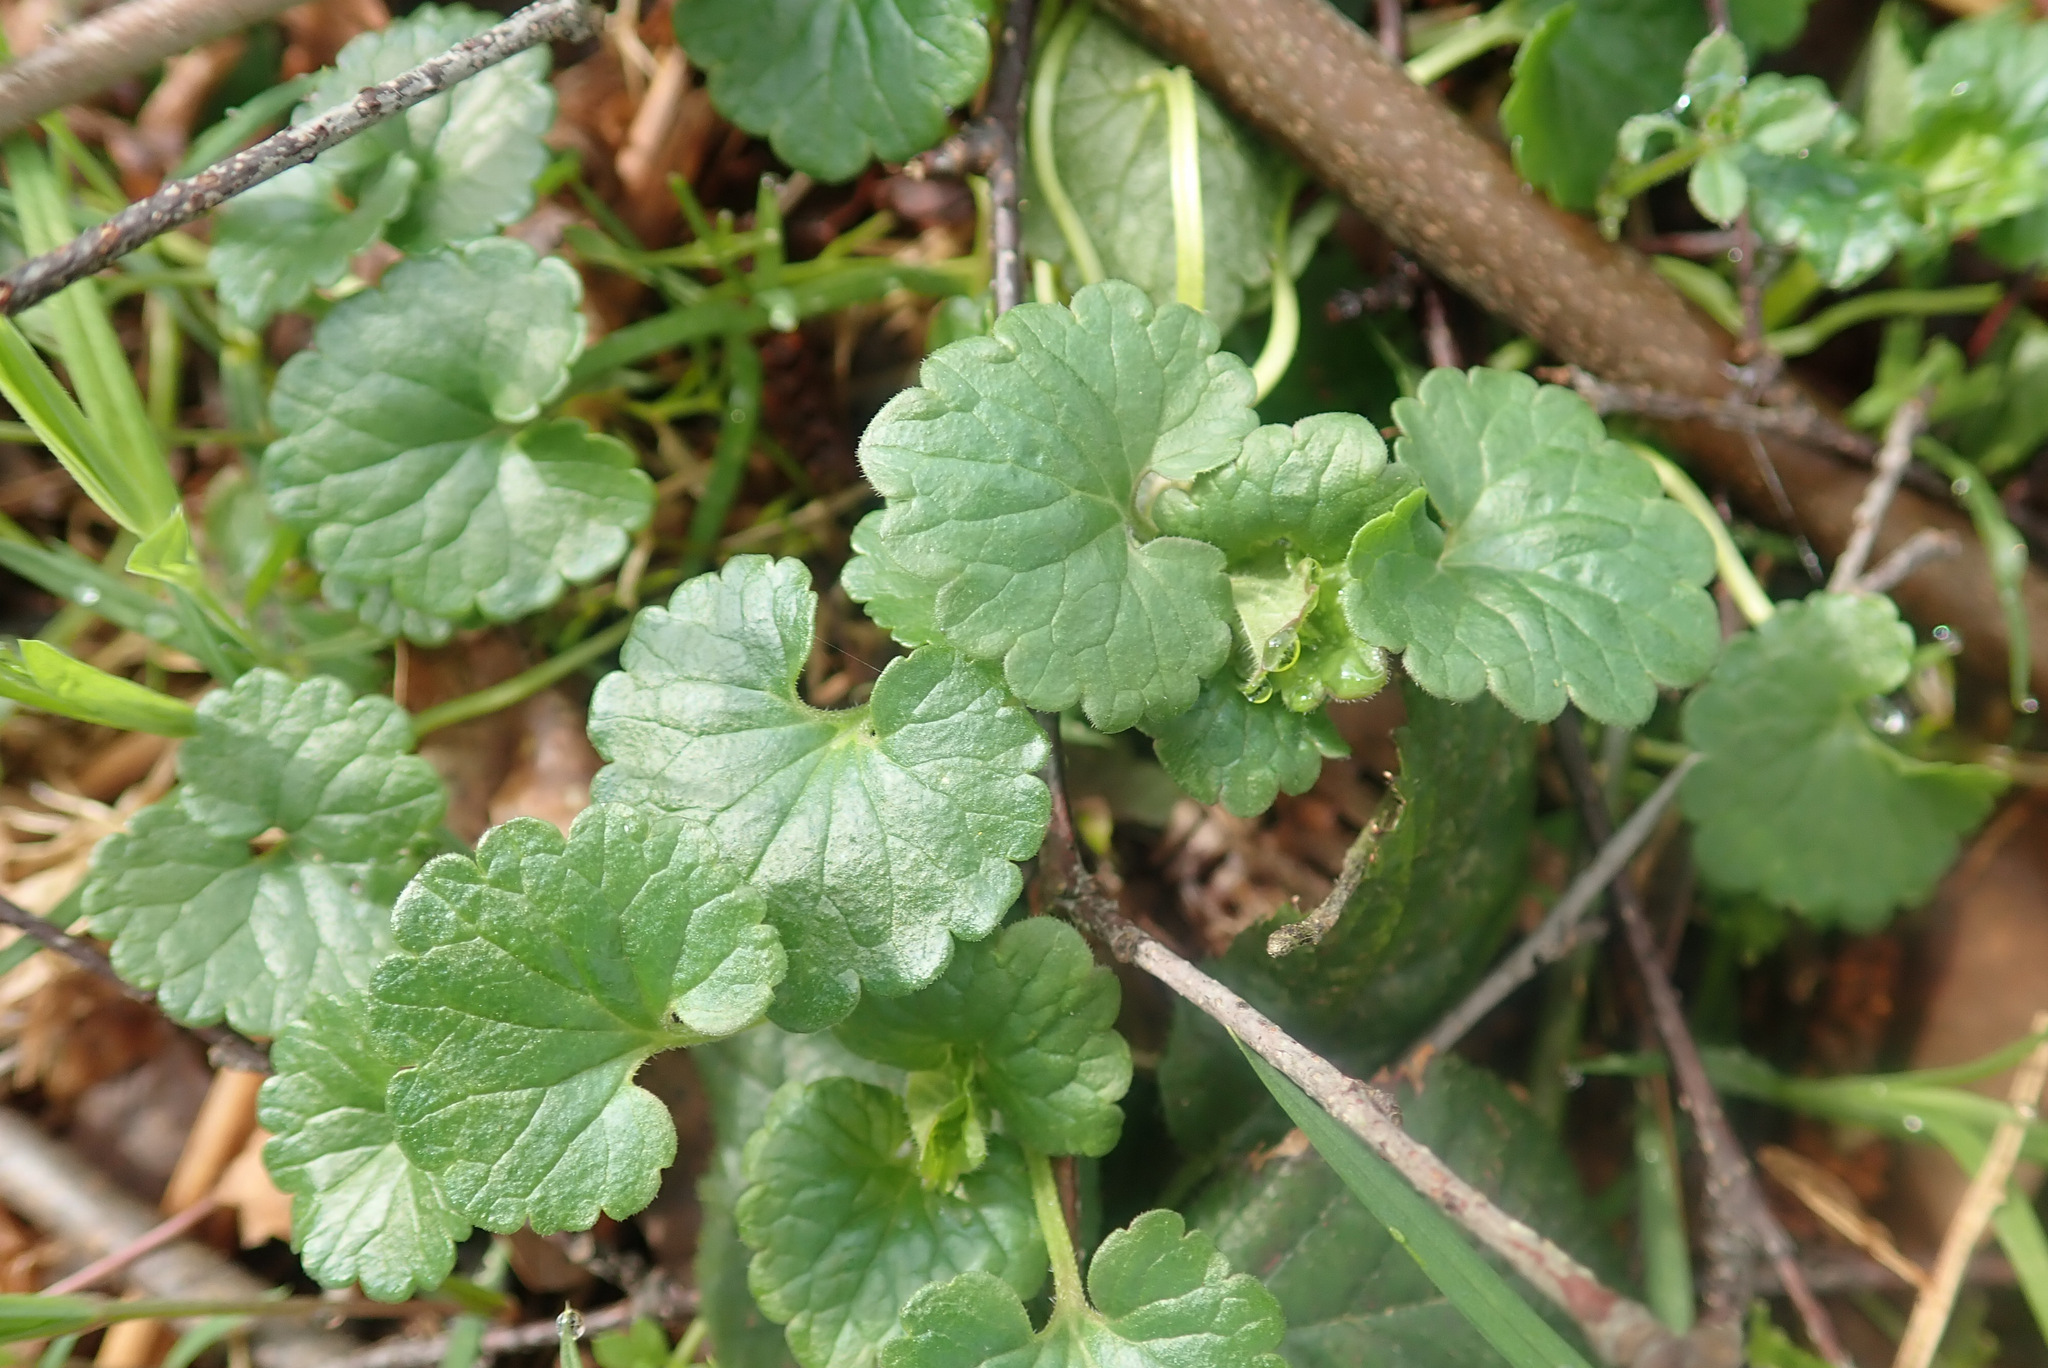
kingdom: Plantae
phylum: Tracheophyta
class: Magnoliopsida
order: Lamiales
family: Lamiaceae
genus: Glechoma
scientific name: Glechoma hederacea
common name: Ground ivy
